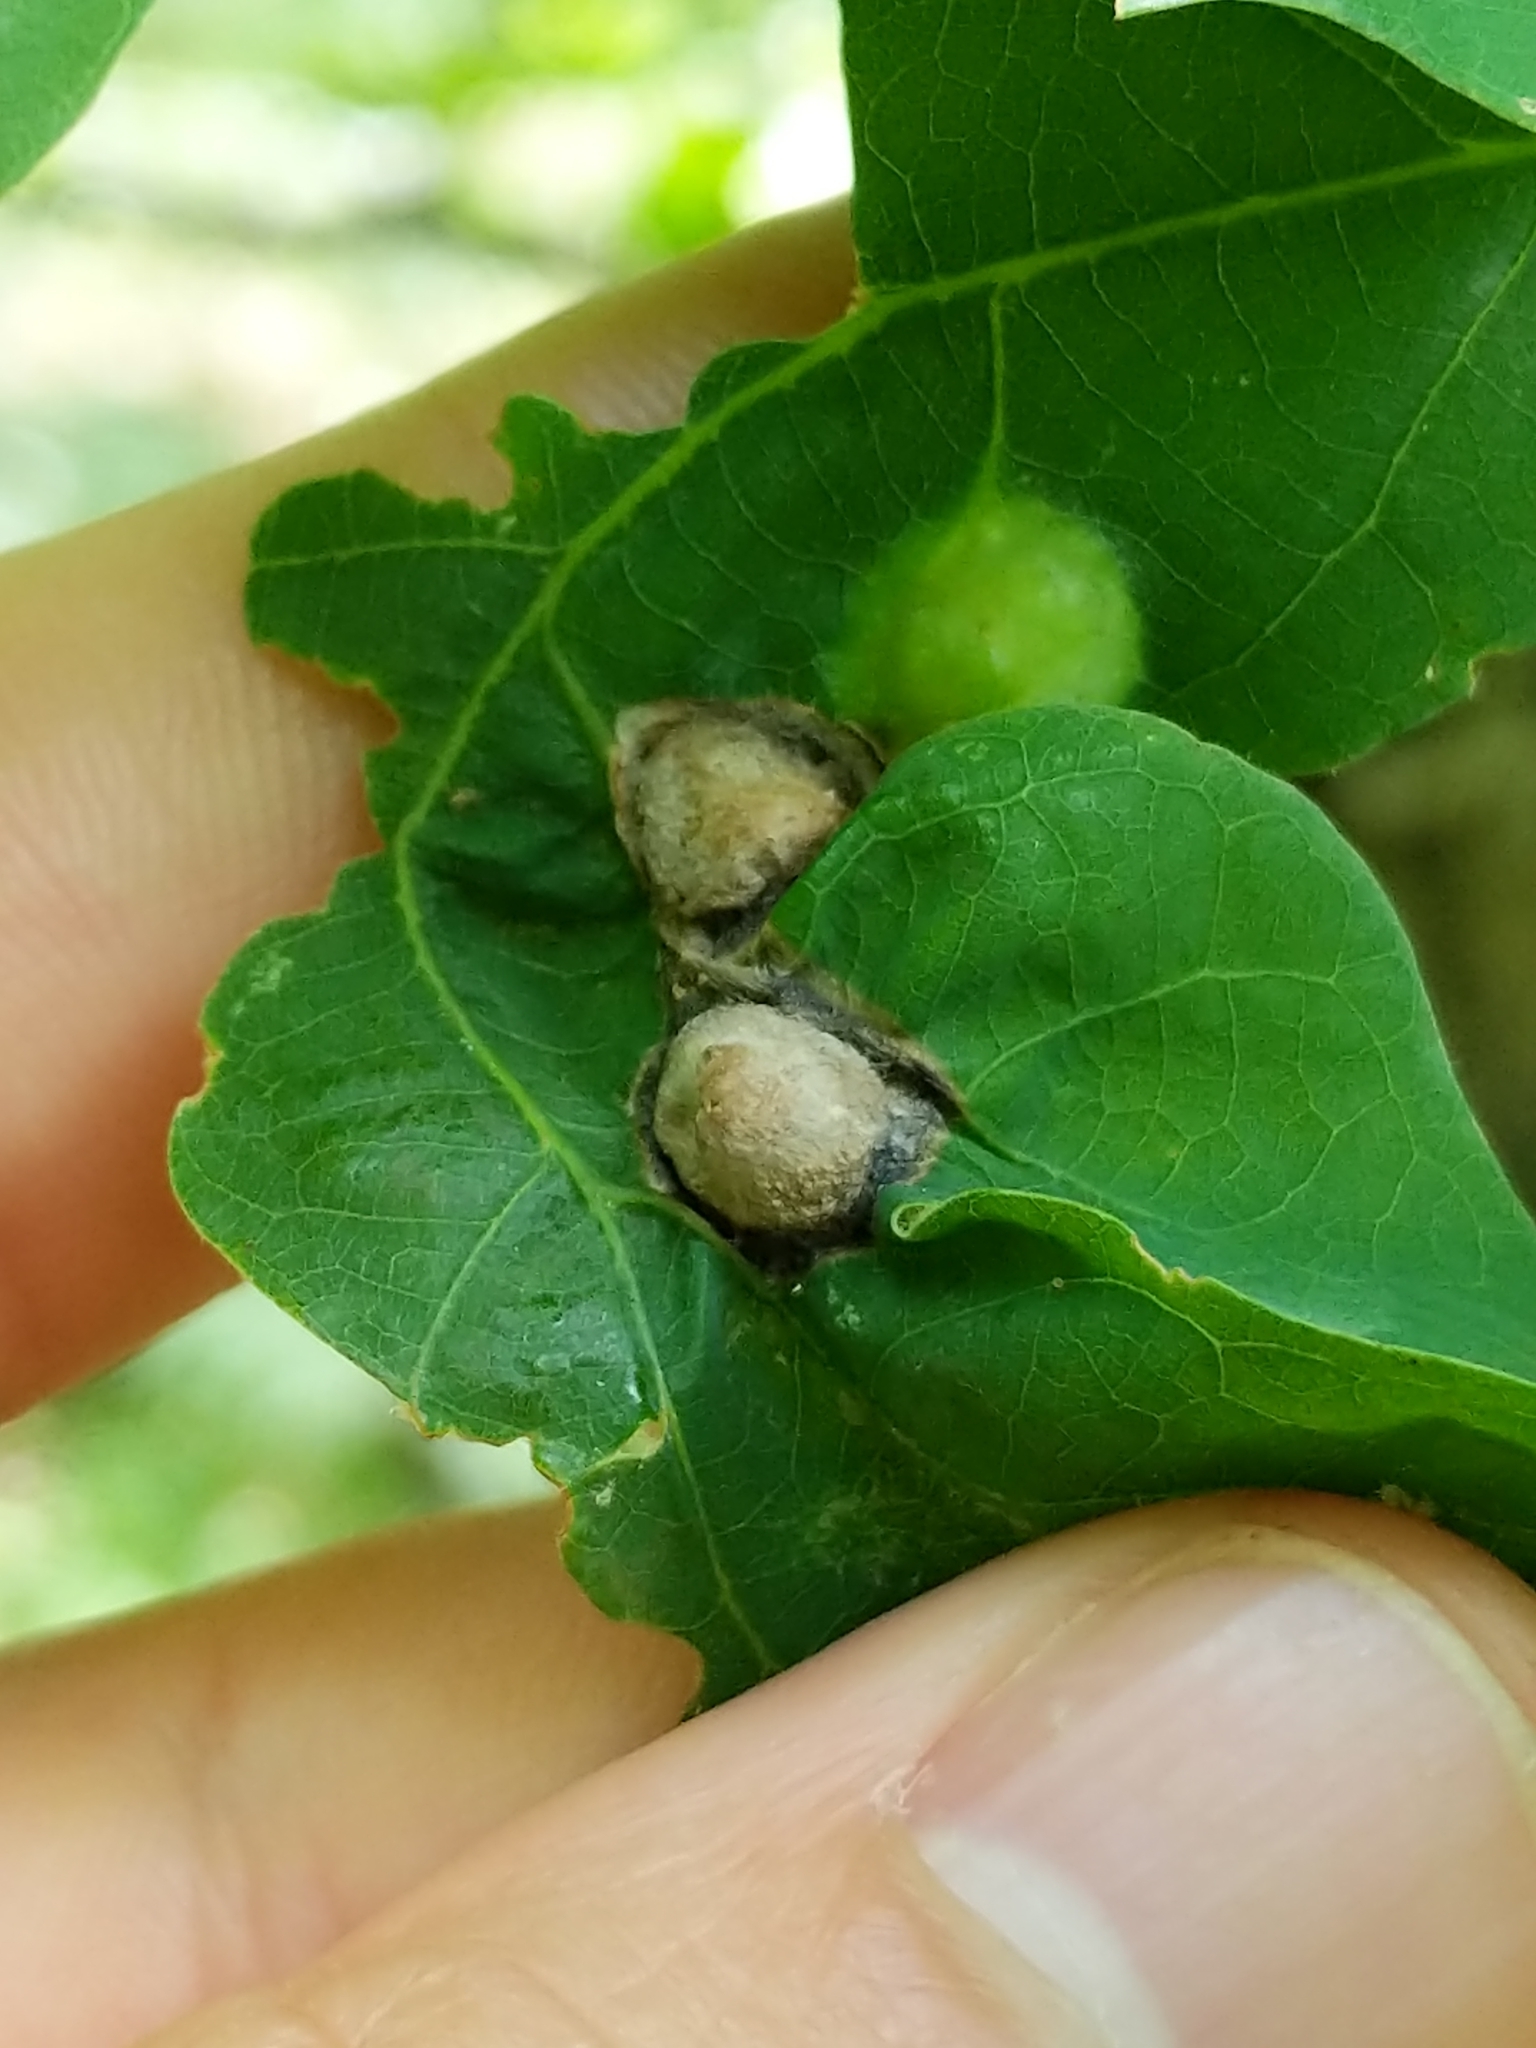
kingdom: Animalia
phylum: Arthropoda
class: Insecta
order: Hymenoptera
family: Cynipidae
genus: Callirhytis
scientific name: Callirhytis
